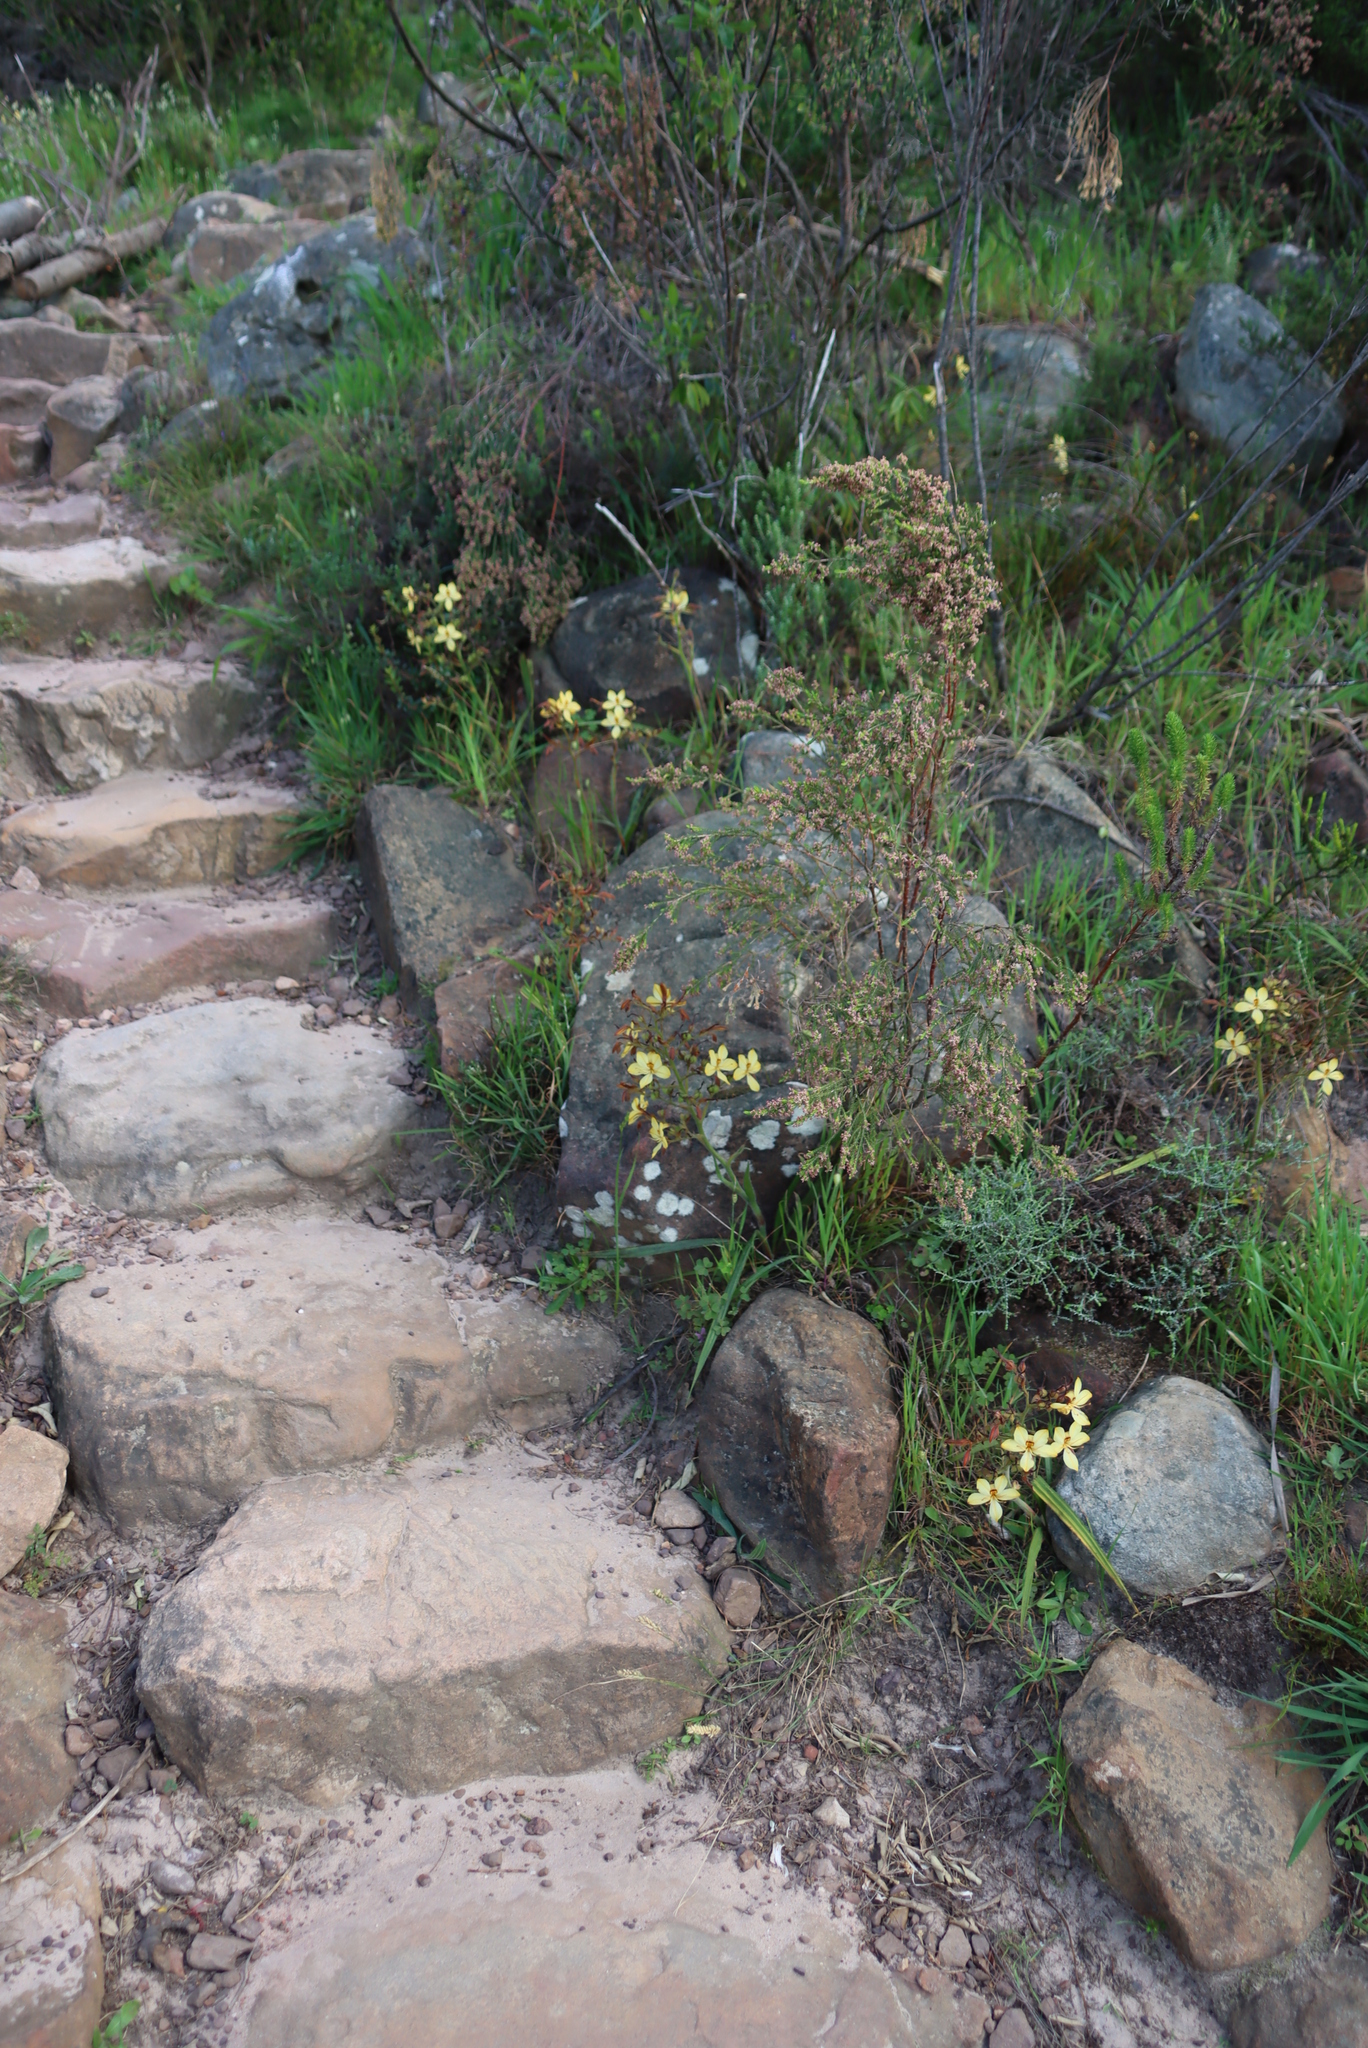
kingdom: Plantae
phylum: Tracheophyta
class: Liliopsida
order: Commelinales
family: Haemodoraceae
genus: Wachendorfia
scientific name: Wachendorfia paniculata
